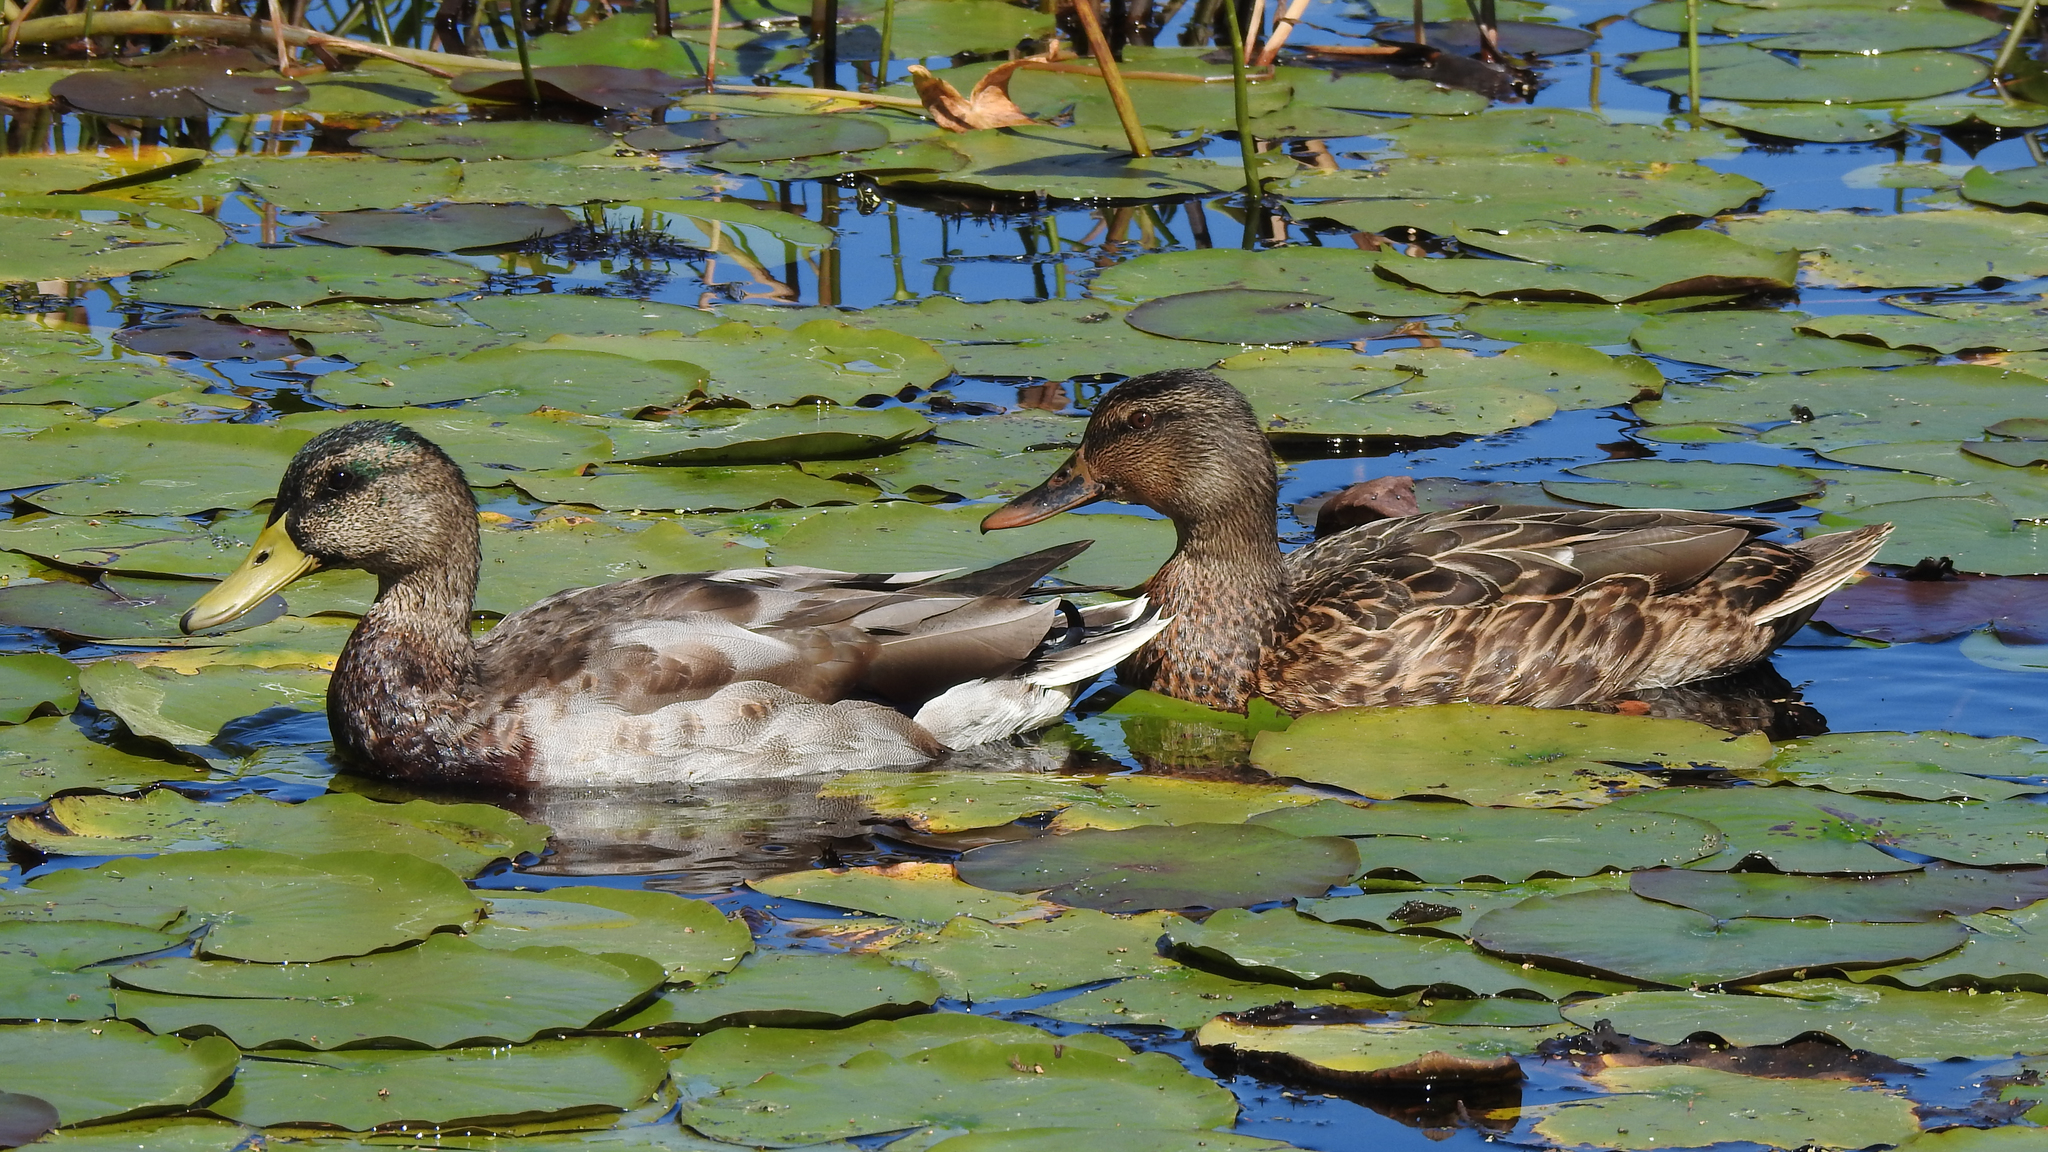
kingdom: Animalia
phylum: Chordata
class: Aves
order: Anseriformes
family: Anatidae
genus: Anas
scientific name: Anas platyrhynchos
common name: Mallard
